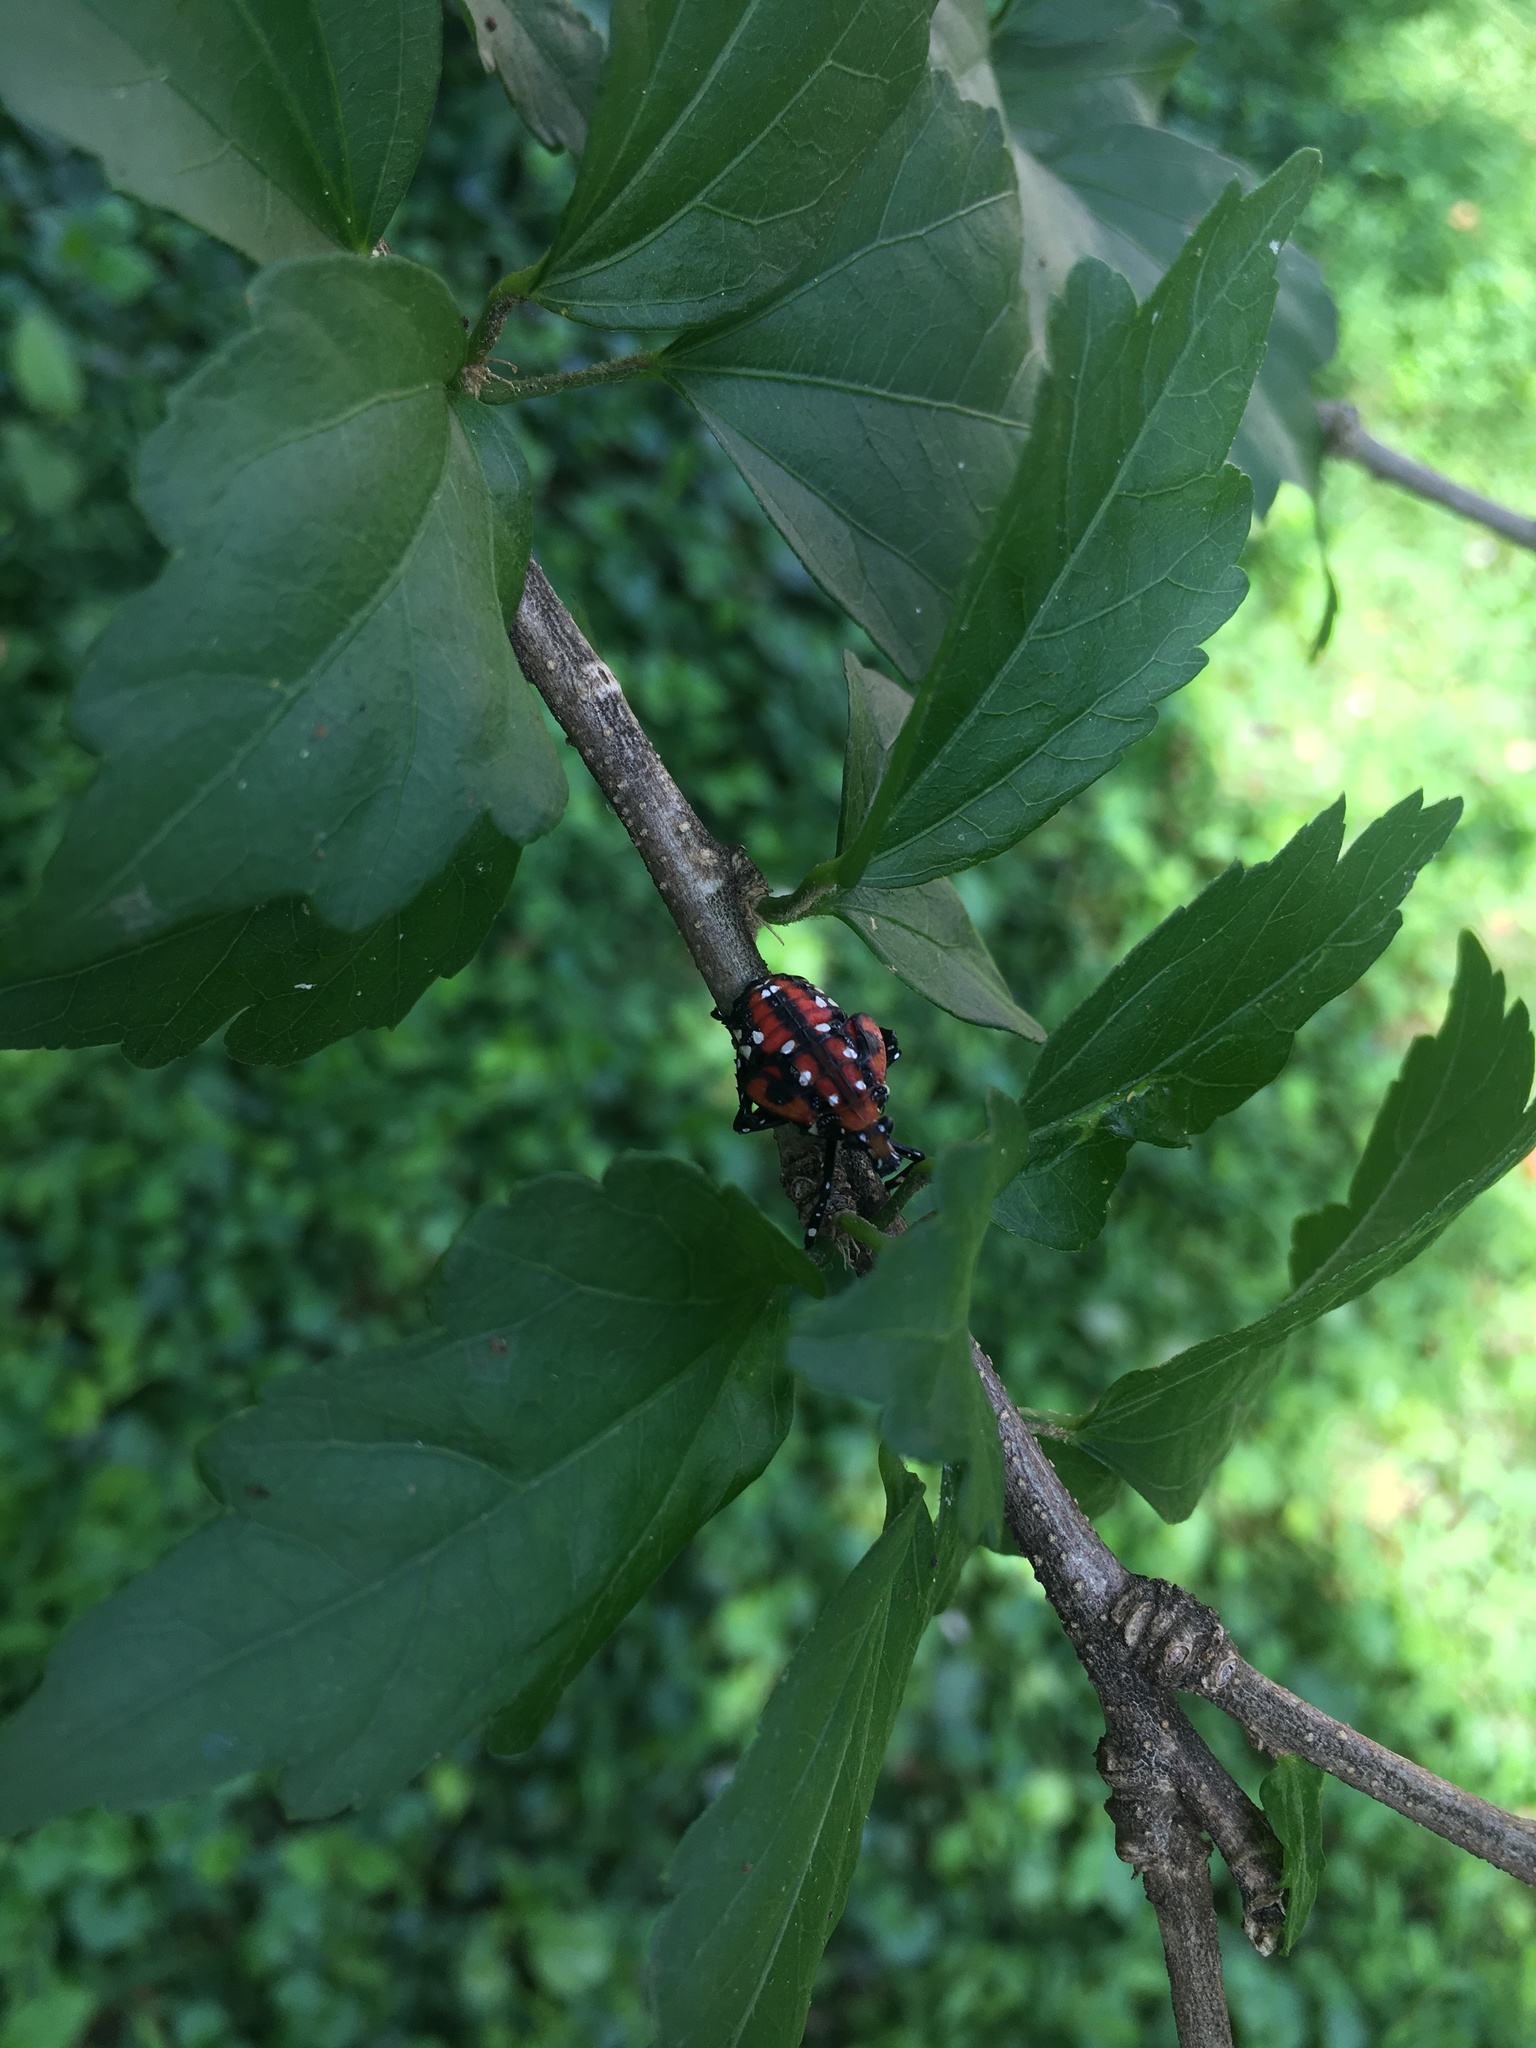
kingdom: Animalia
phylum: Arthropoda
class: Insecta
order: Hemiptera
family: Fulgoridae
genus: Lycorma
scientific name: Lycorma delicatula
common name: Spotted lanternfly
